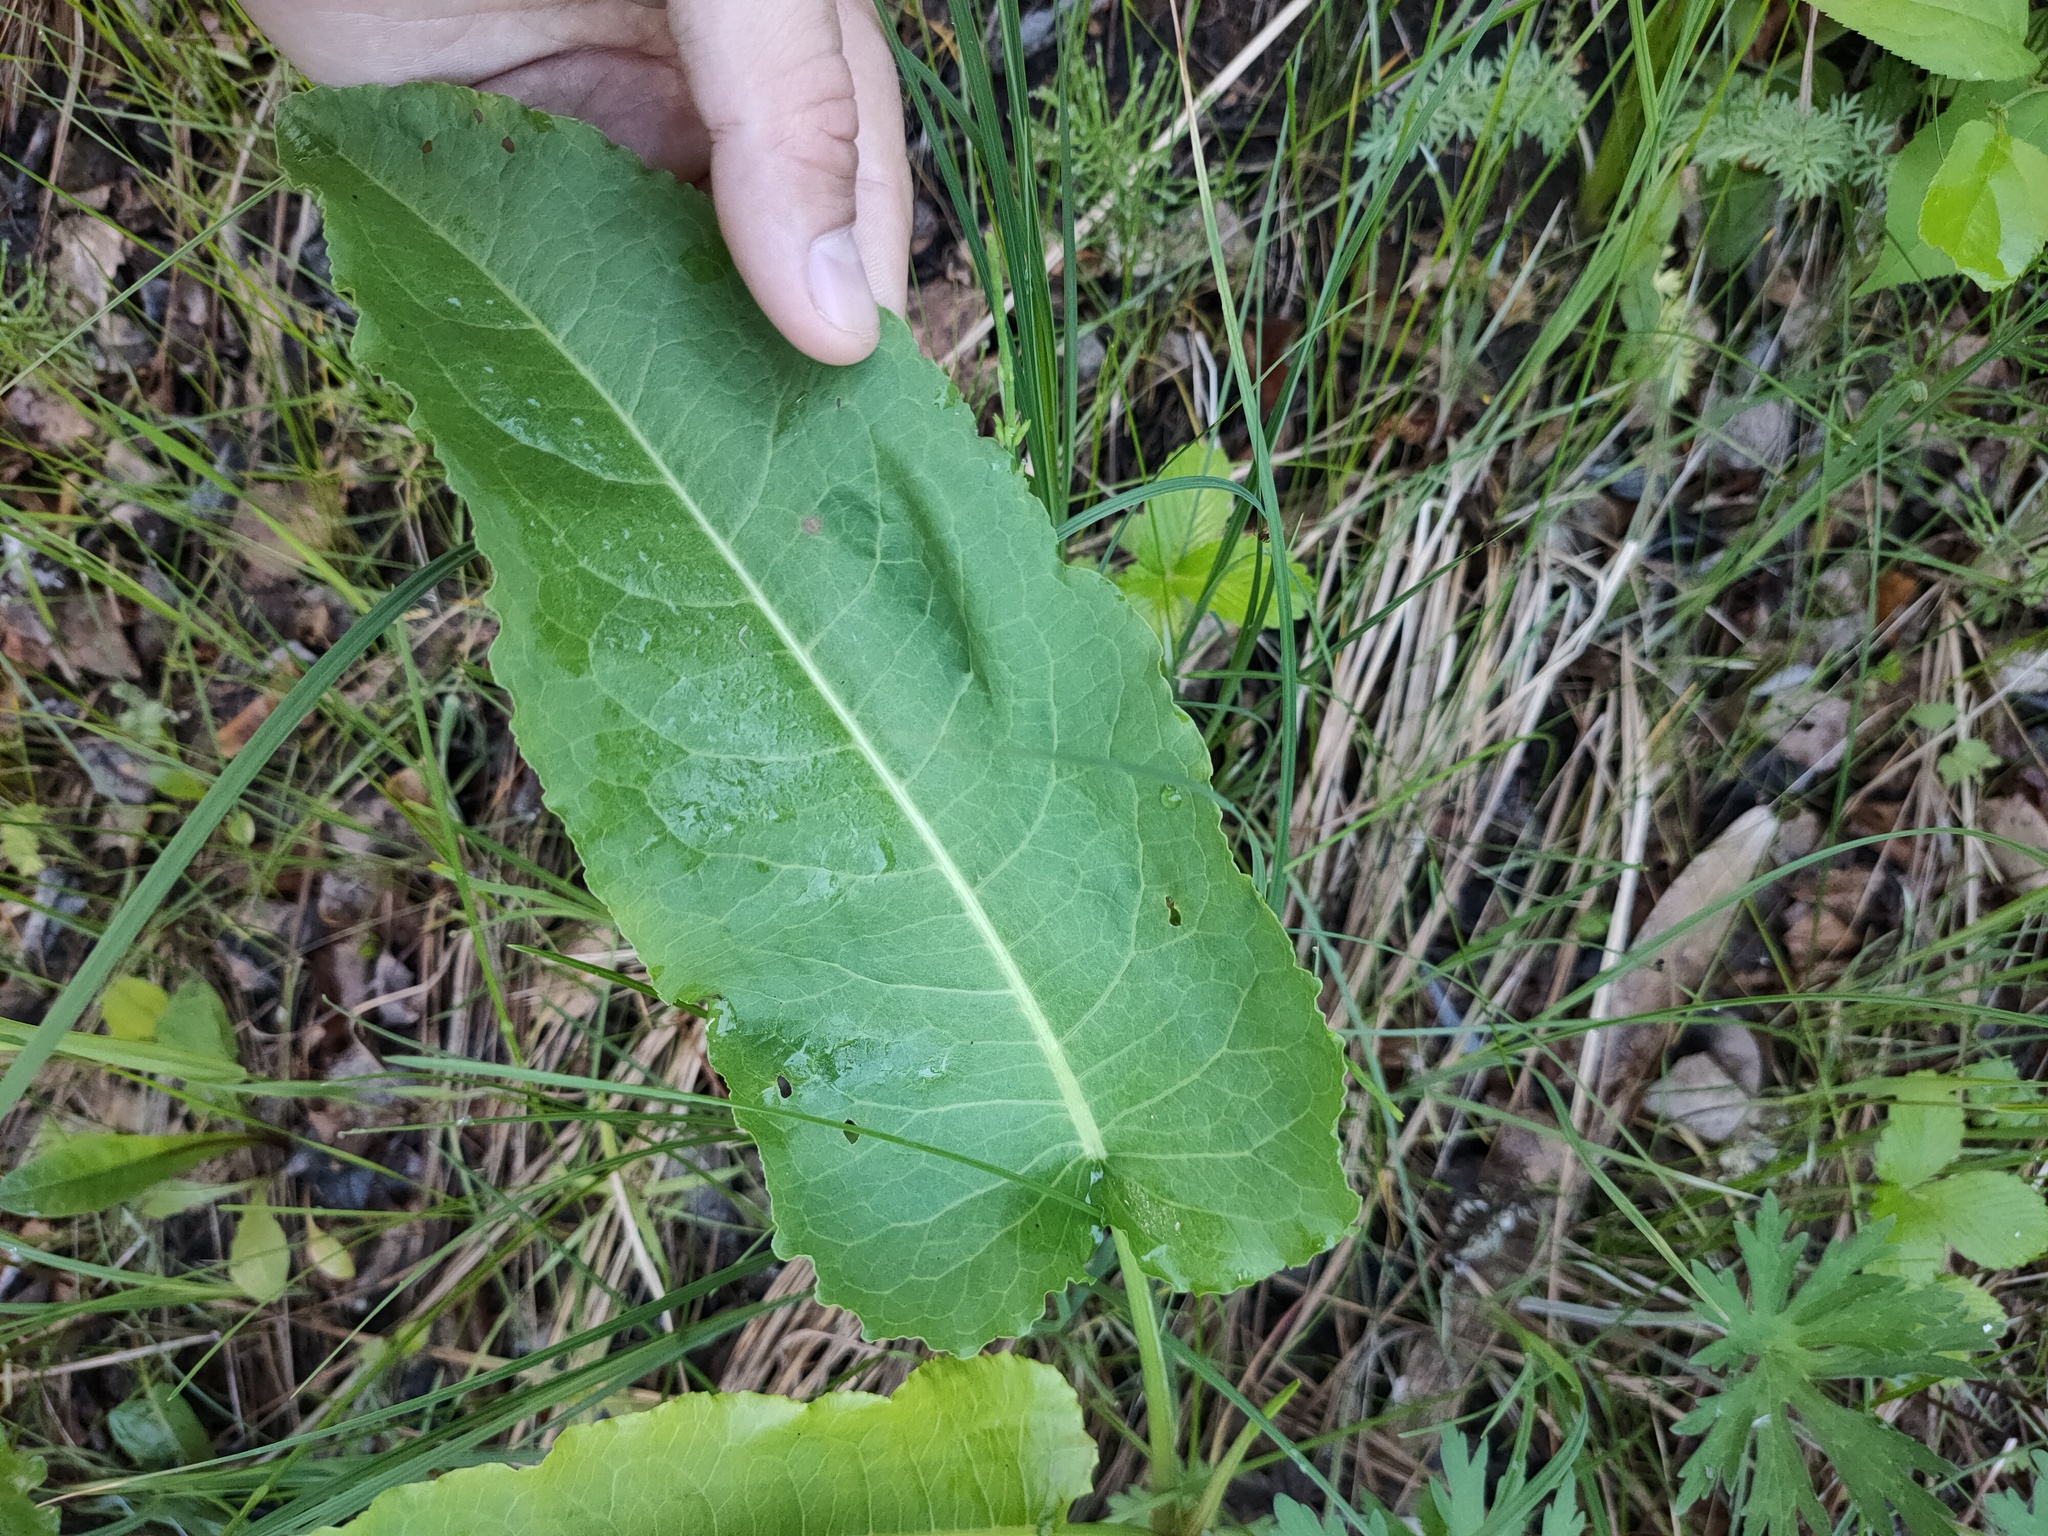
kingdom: Plantae
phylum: Tracheophyta
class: Magnoliopsida
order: Caryophyllales
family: Polygonaceae
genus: Rumex
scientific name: Rumex aquaticus
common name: Scottish dock
